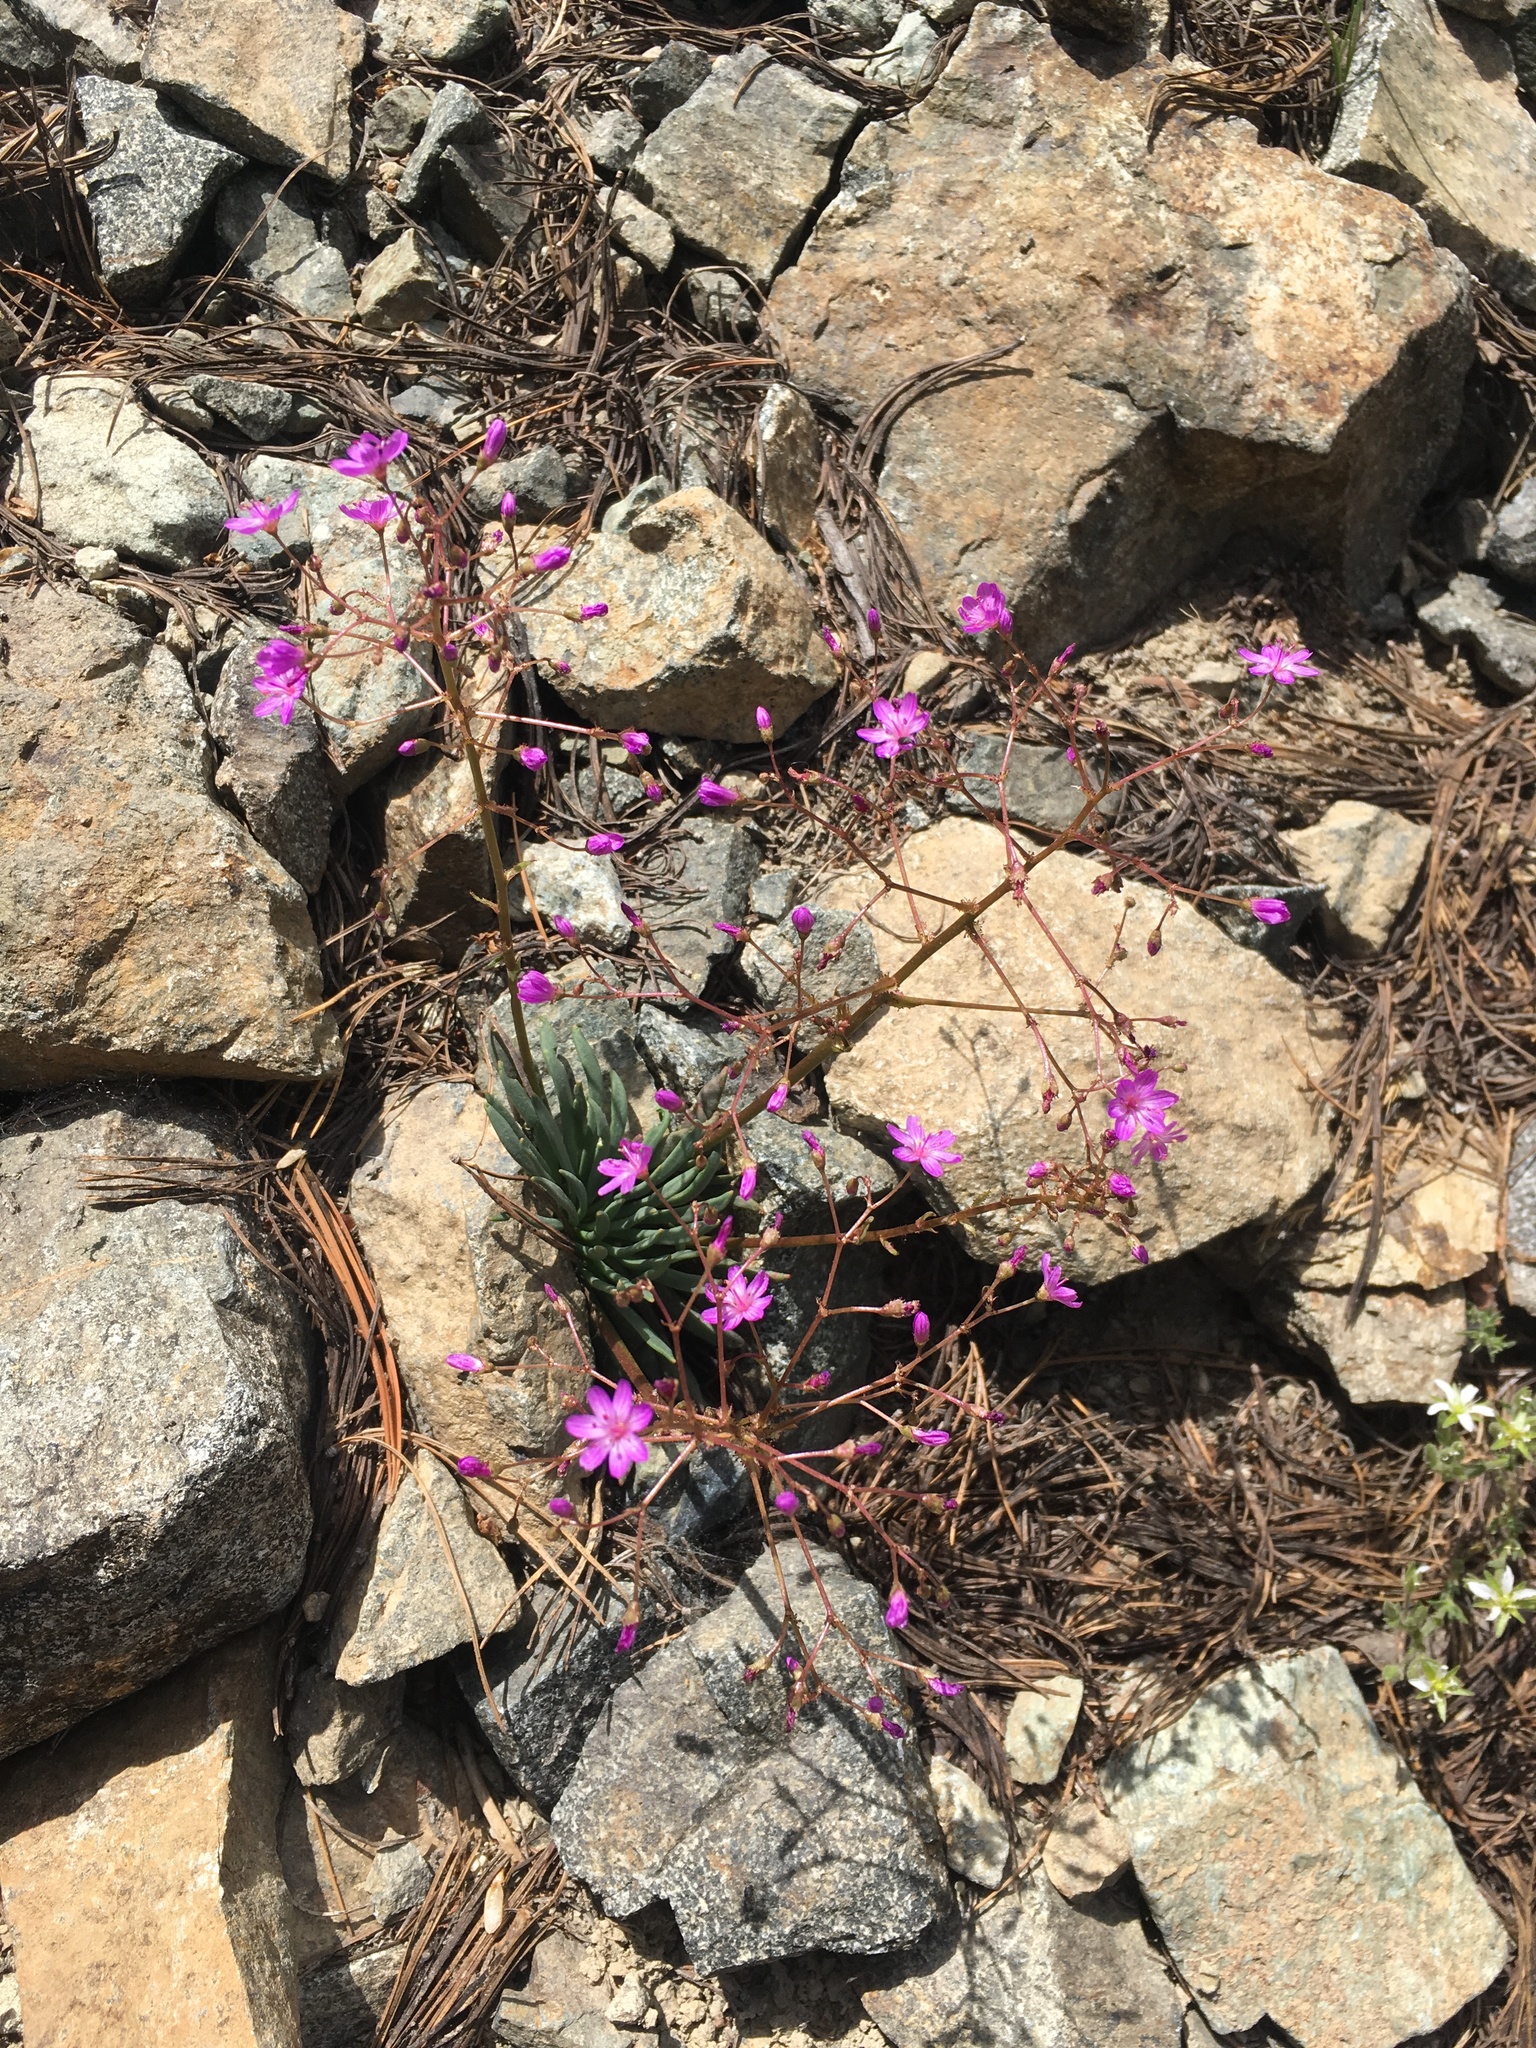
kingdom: Plantae
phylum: Tracheophyta
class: Magnoliopsida
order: Caryophyllales
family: Montiaceae
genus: Lewisia
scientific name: Lewisia leeana
